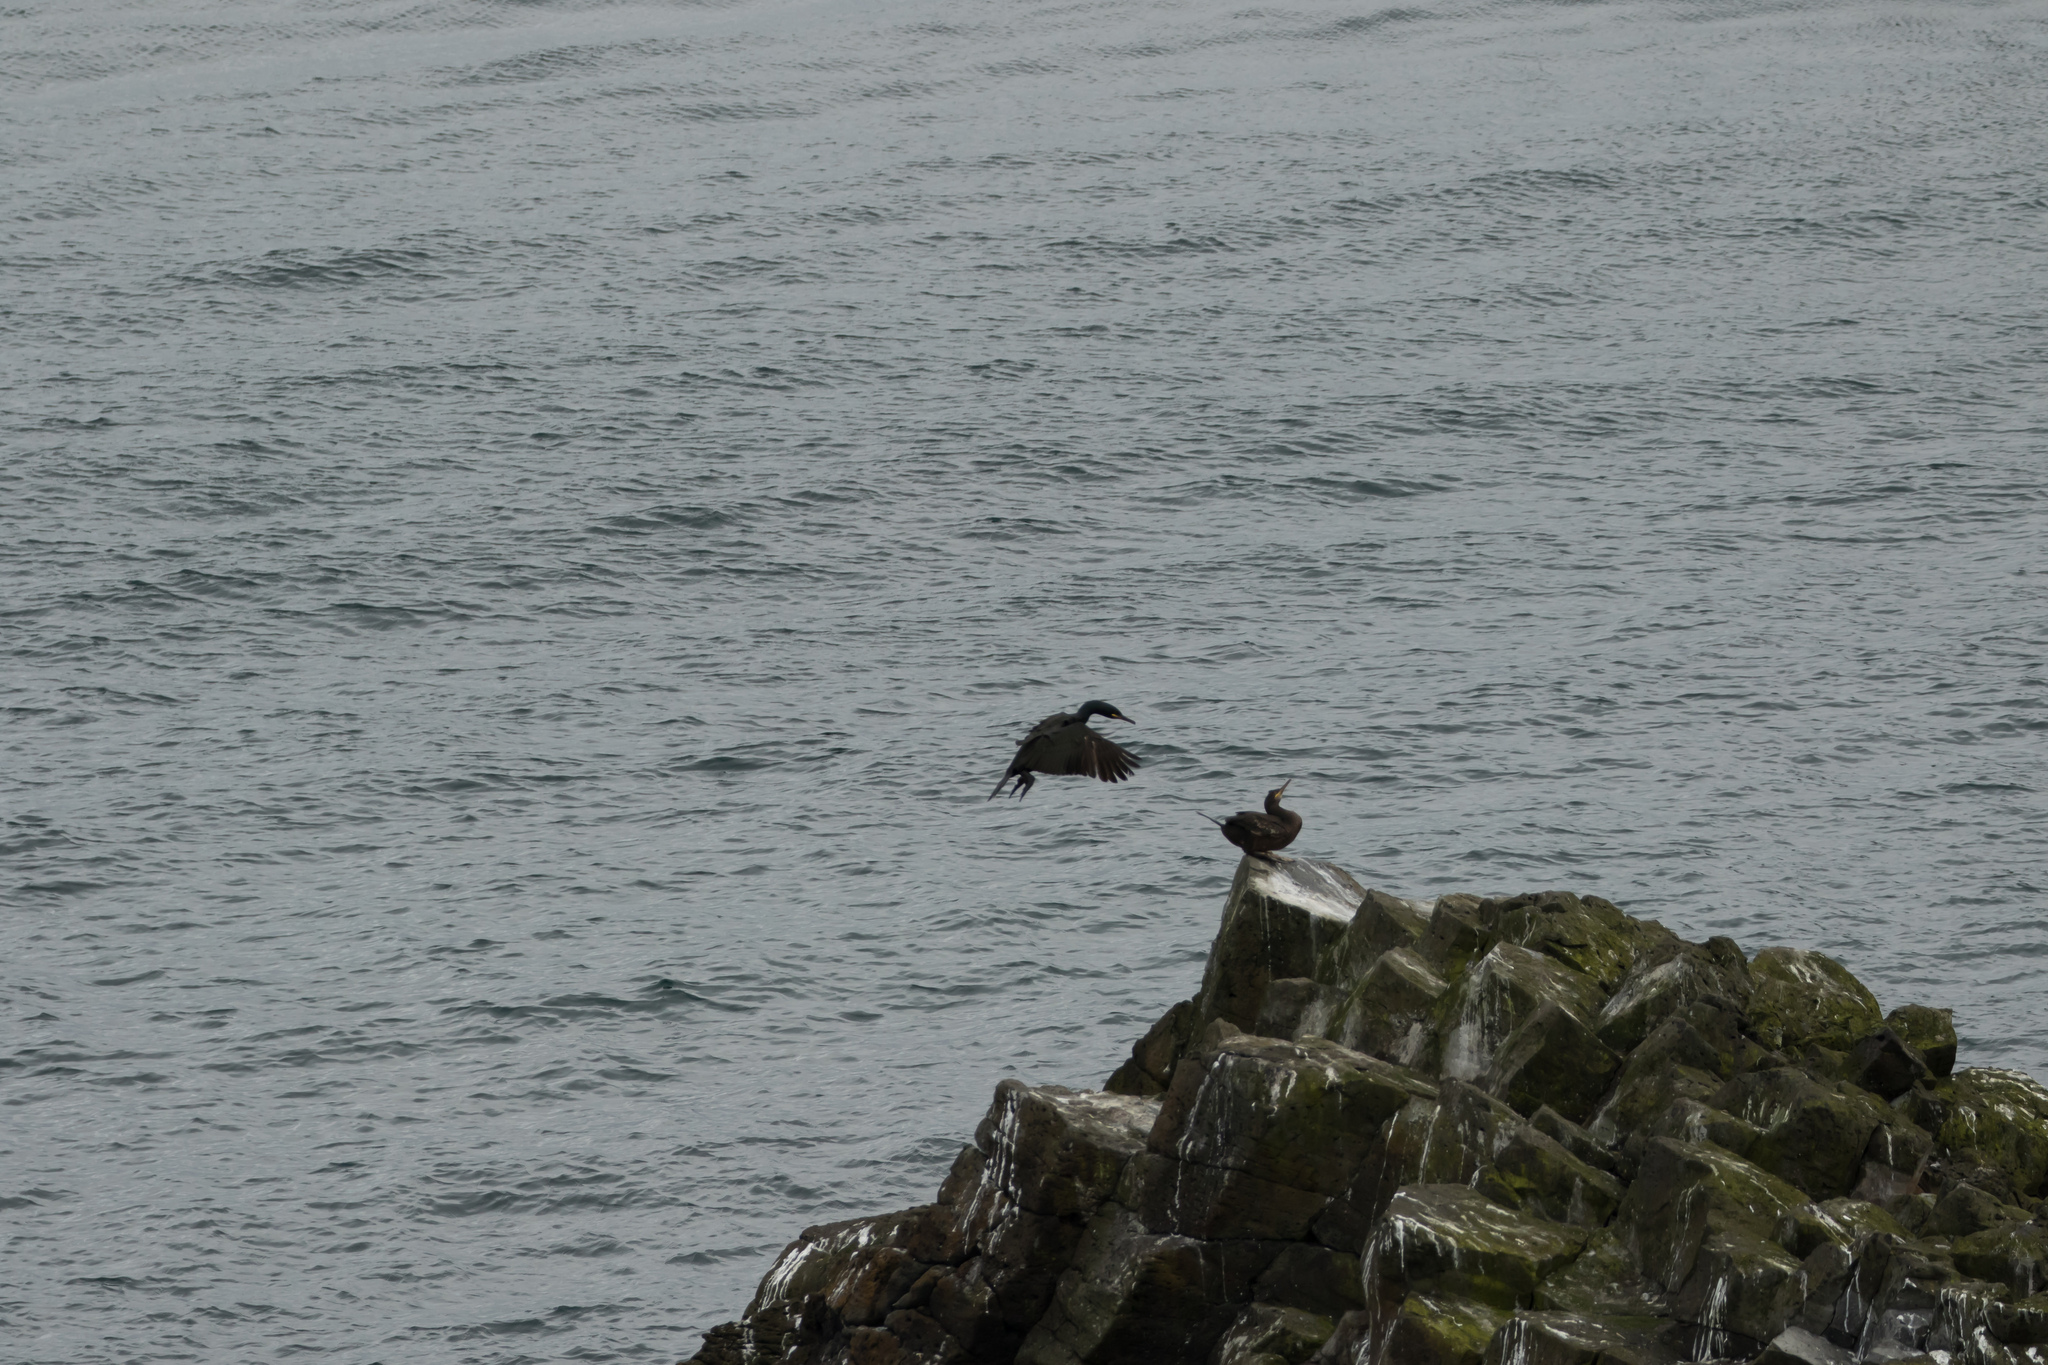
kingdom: Animalia
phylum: Chordata
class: Aves
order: Suliformes
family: Phalacrocoracidae
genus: Phalacrocorax
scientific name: Phalacrocorax aristotelis
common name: European shag
